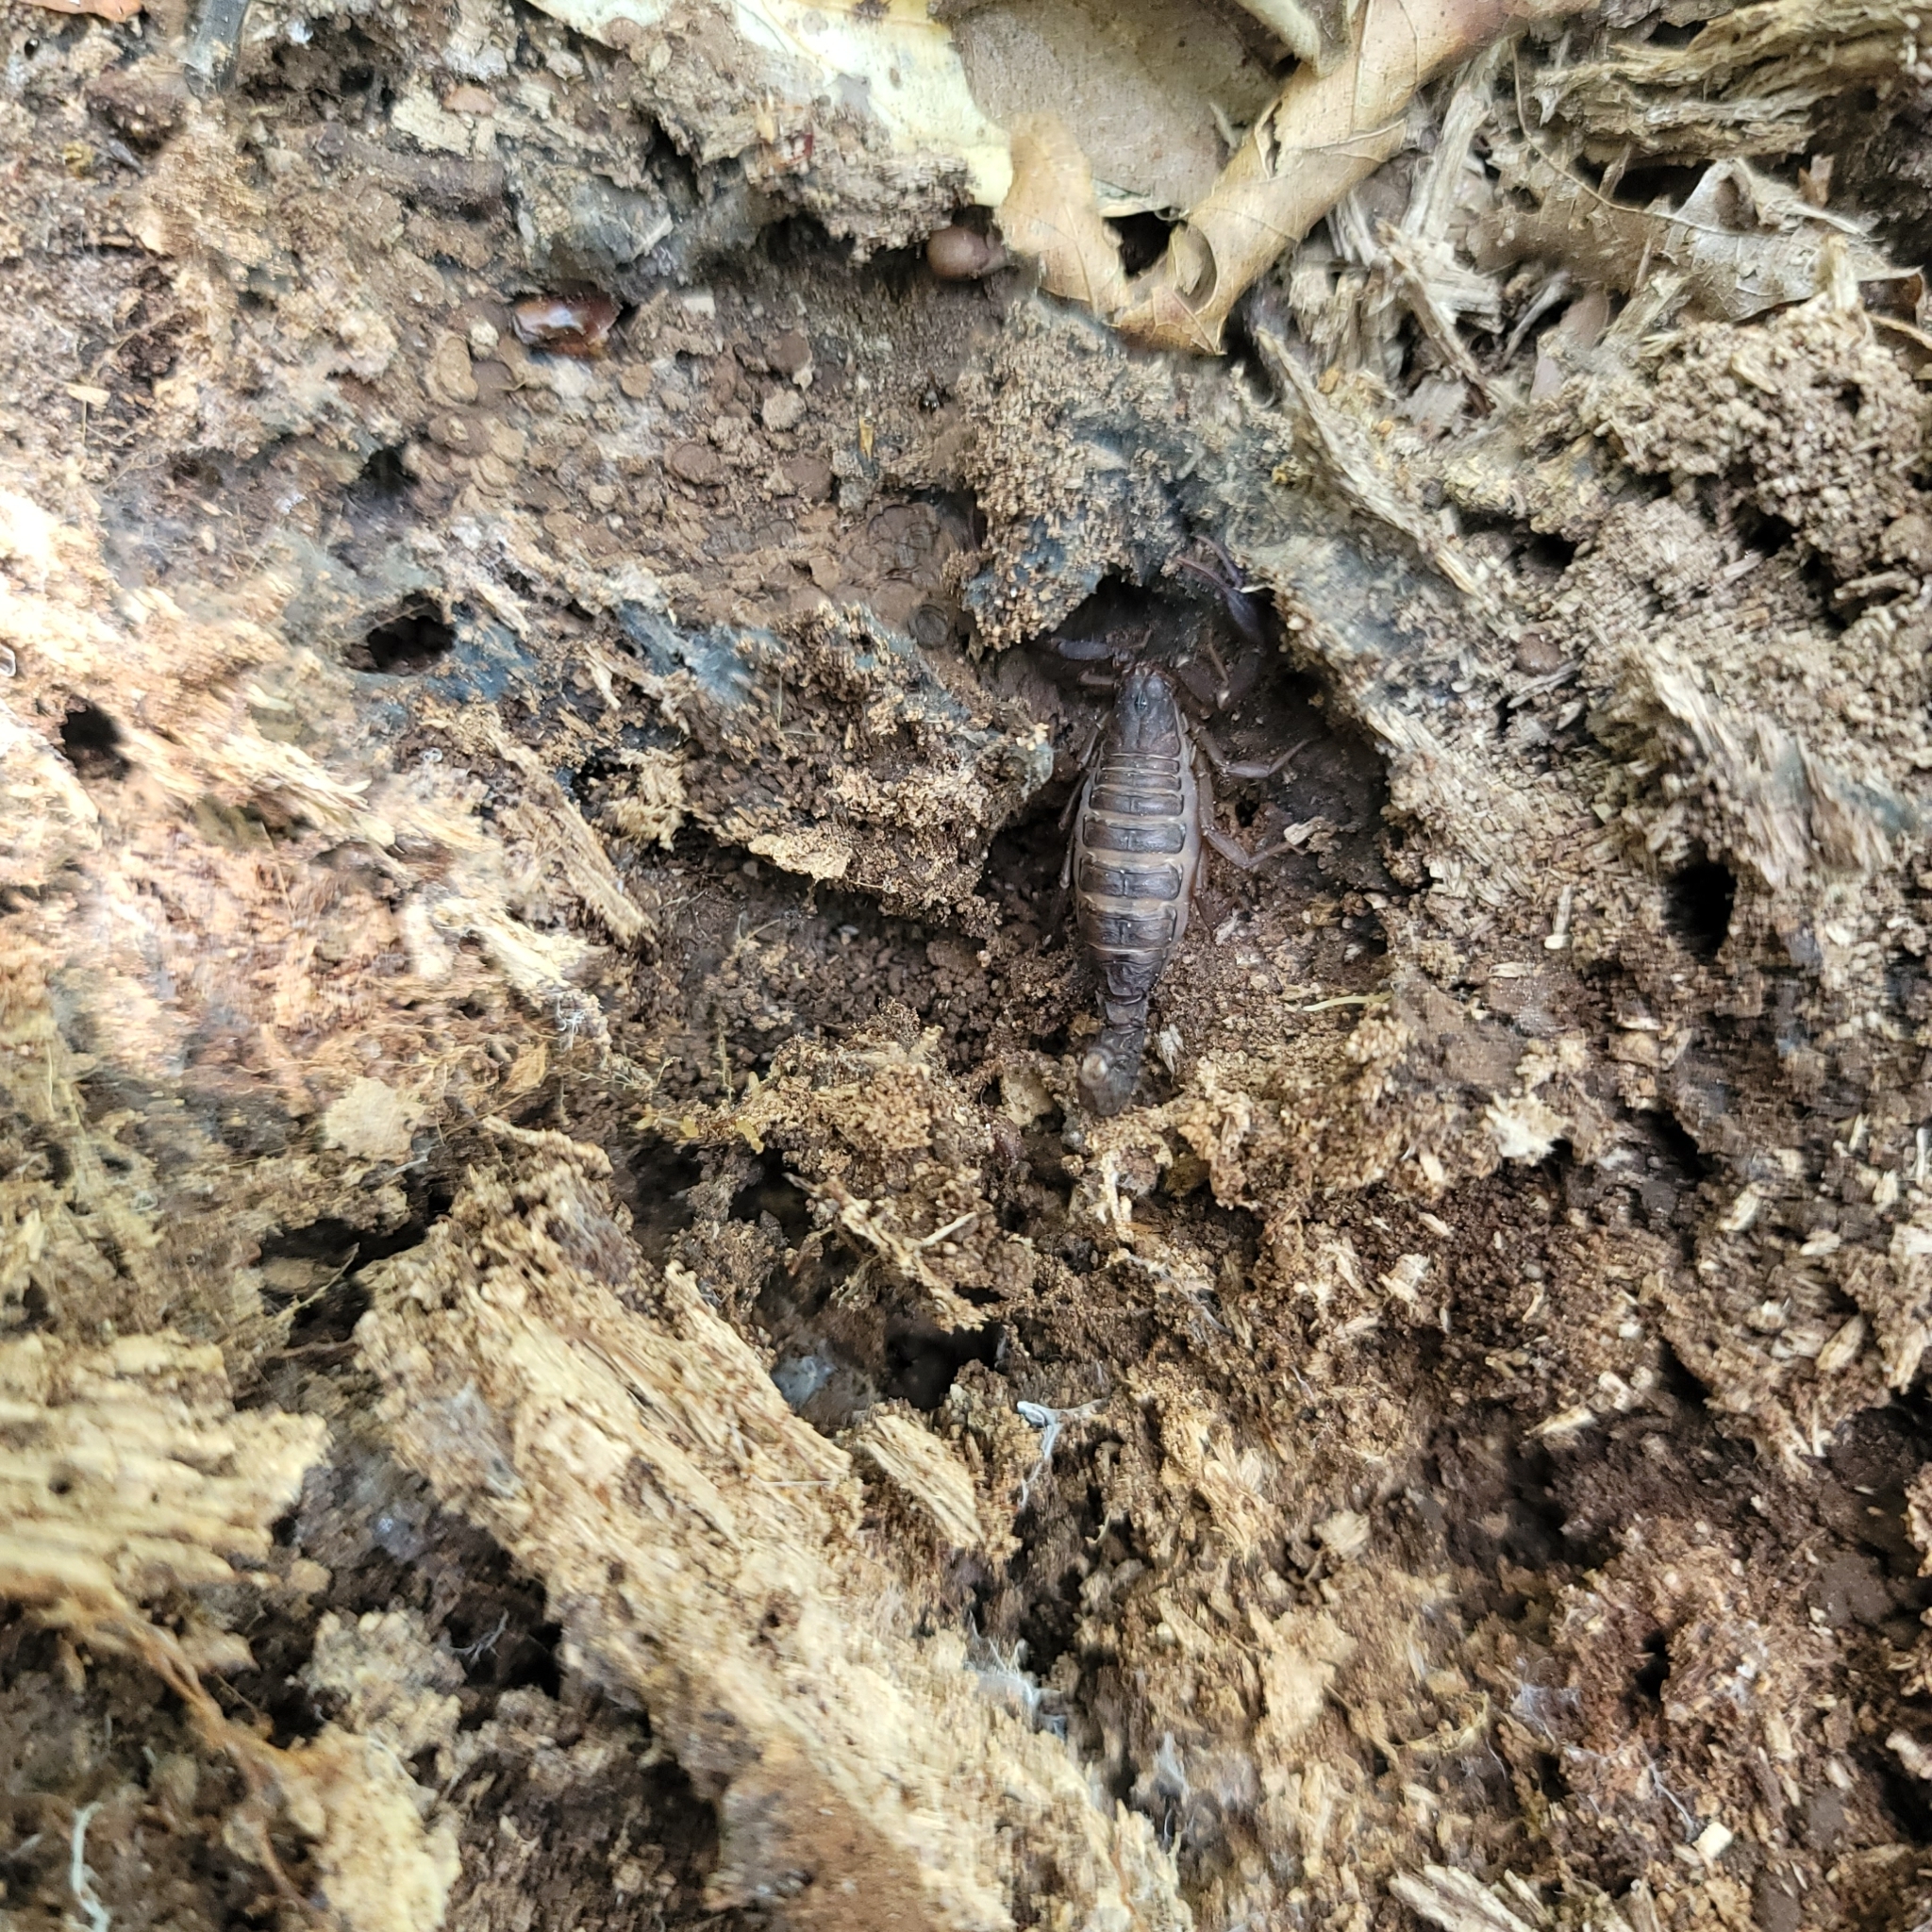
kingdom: Animalia
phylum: Arthropoda
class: Arachnida
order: Scorpiones
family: Vaejovidae
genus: Vaejovis
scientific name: Vaejovis carolinianus
